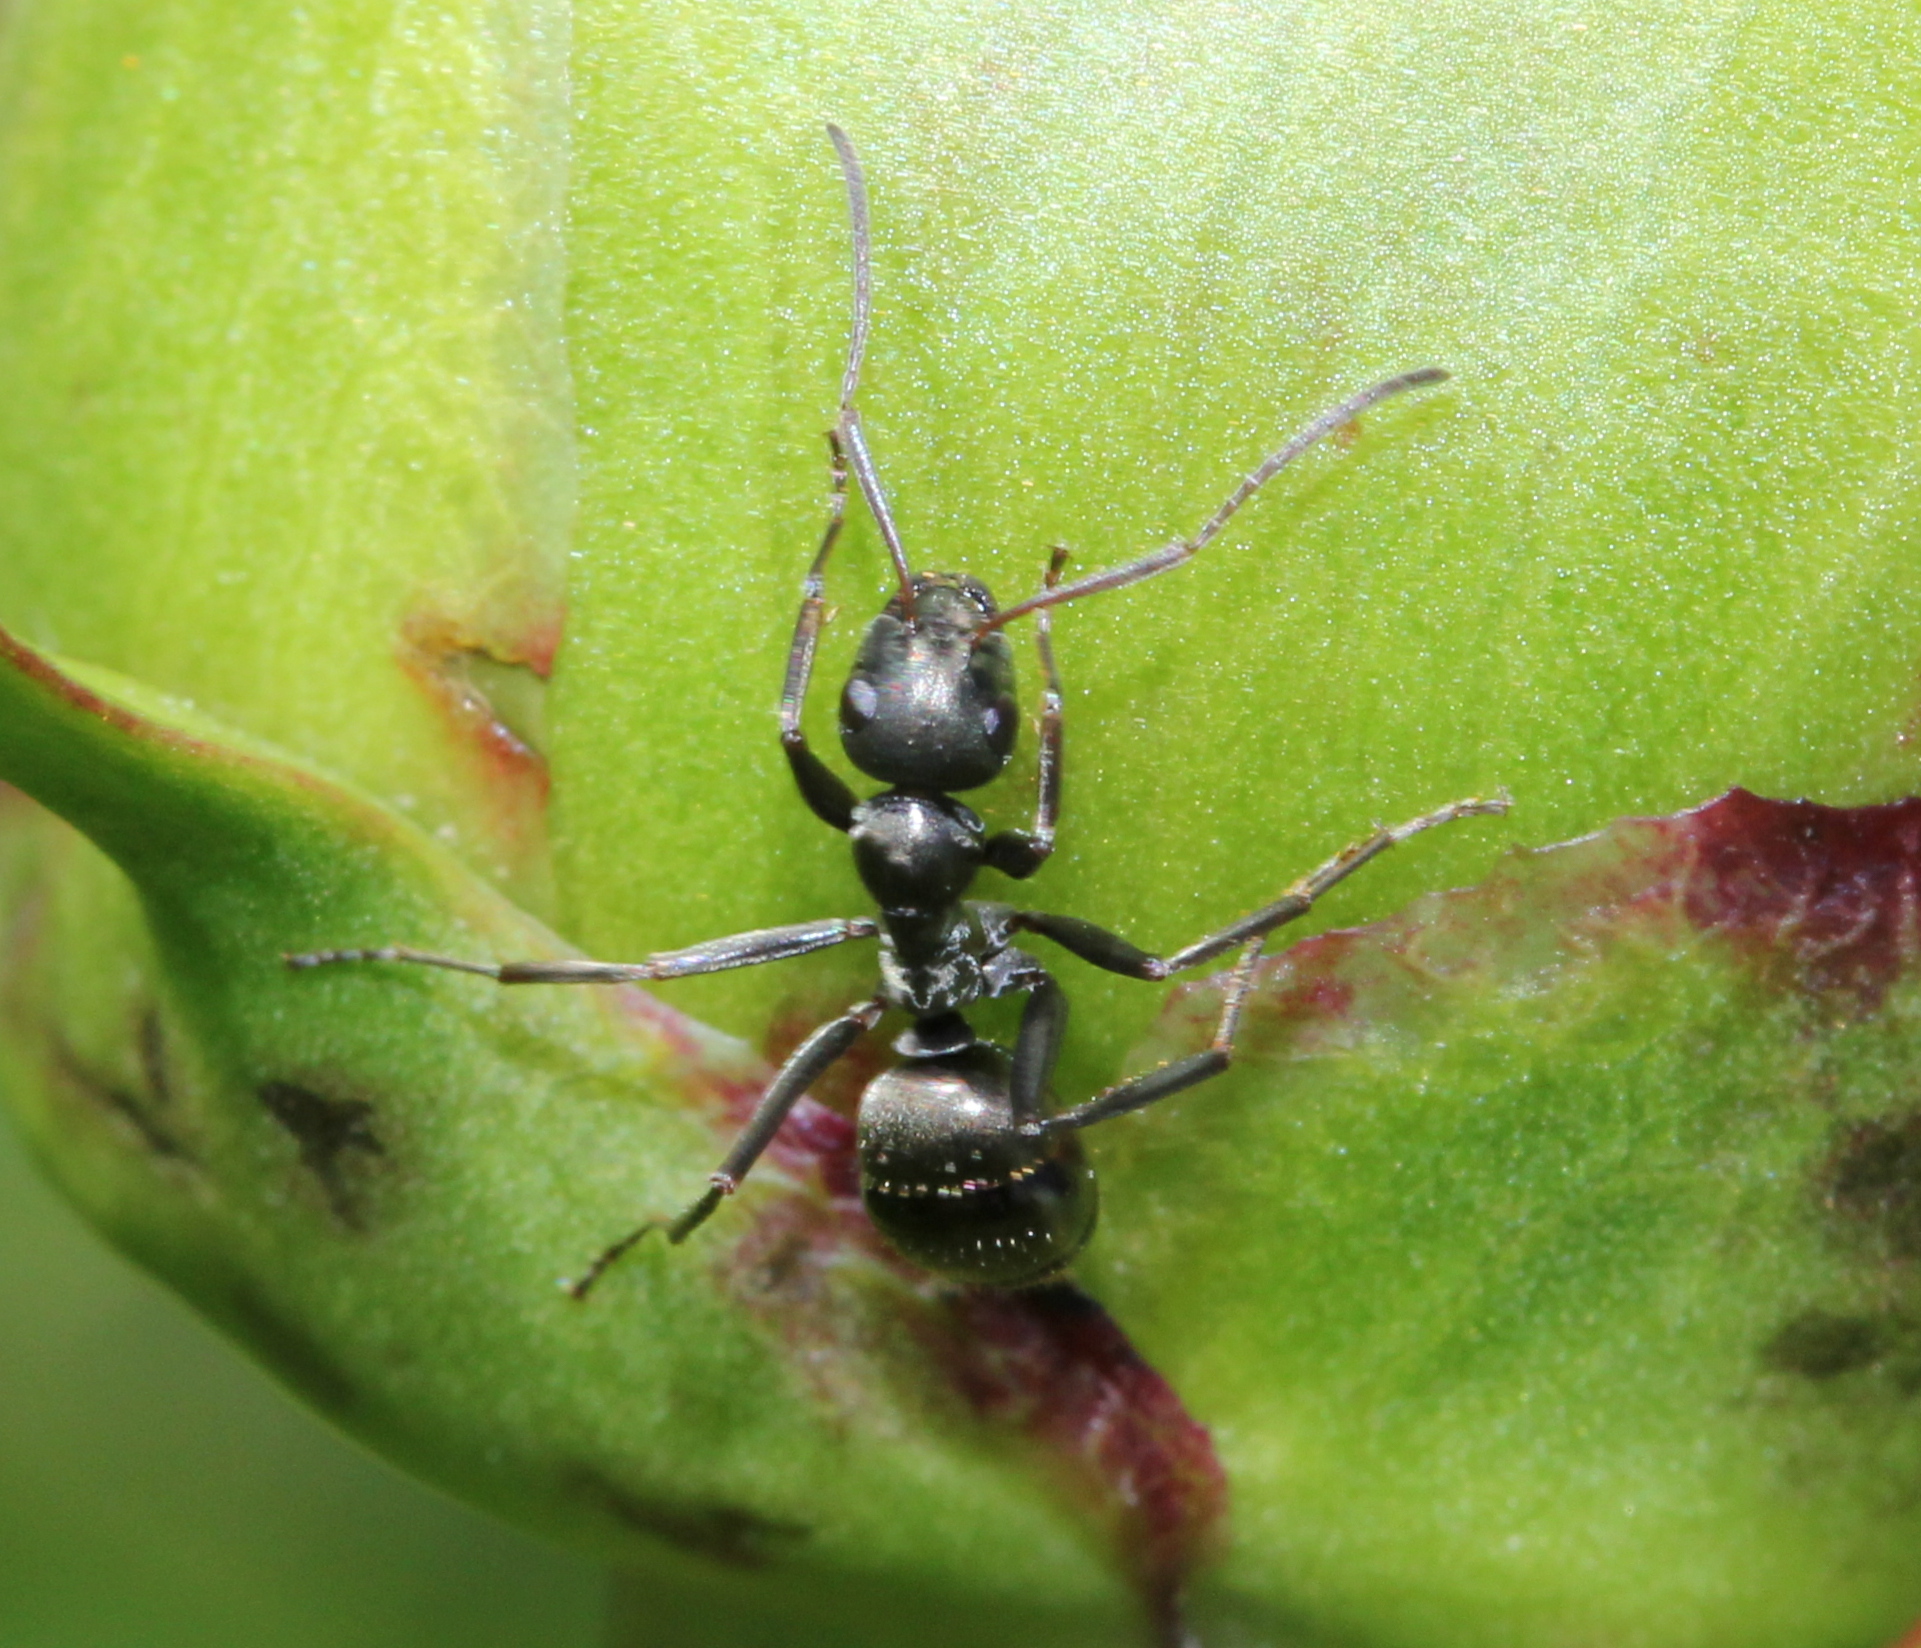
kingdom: Animalia
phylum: Arthropoda
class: Insecta
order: Hymenoptera
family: Formicidae
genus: Formica
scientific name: Formica subsericea
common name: Silky field ant
